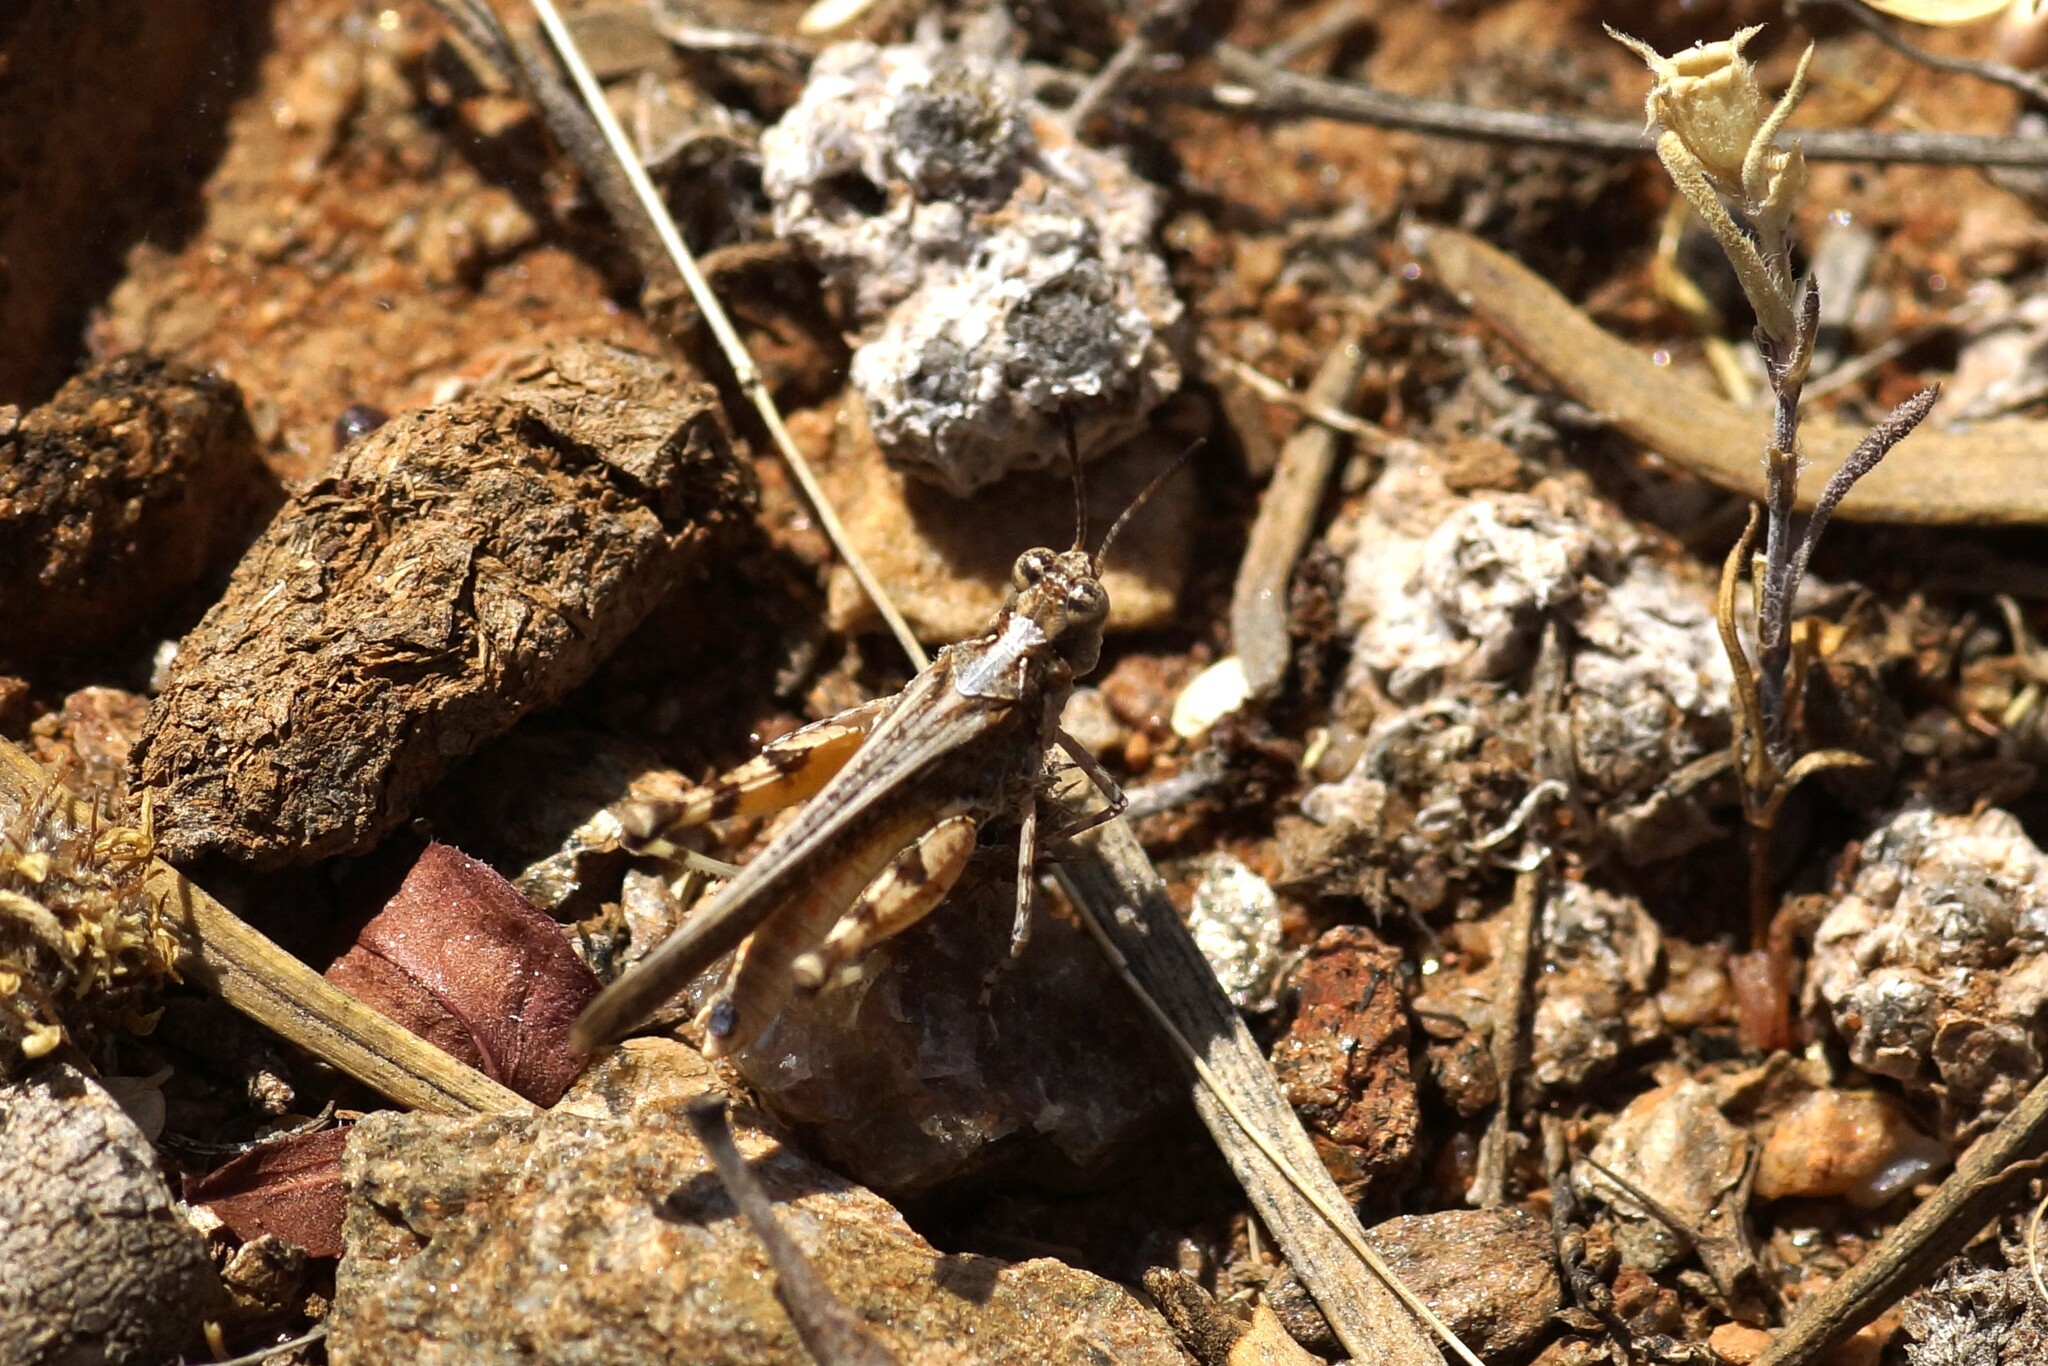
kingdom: Animalia
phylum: Arthropoda
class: Insecta
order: Orthoptera
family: Acrididae
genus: Pycnostictus
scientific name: Pycnostictus seriatus
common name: Common bandwing
